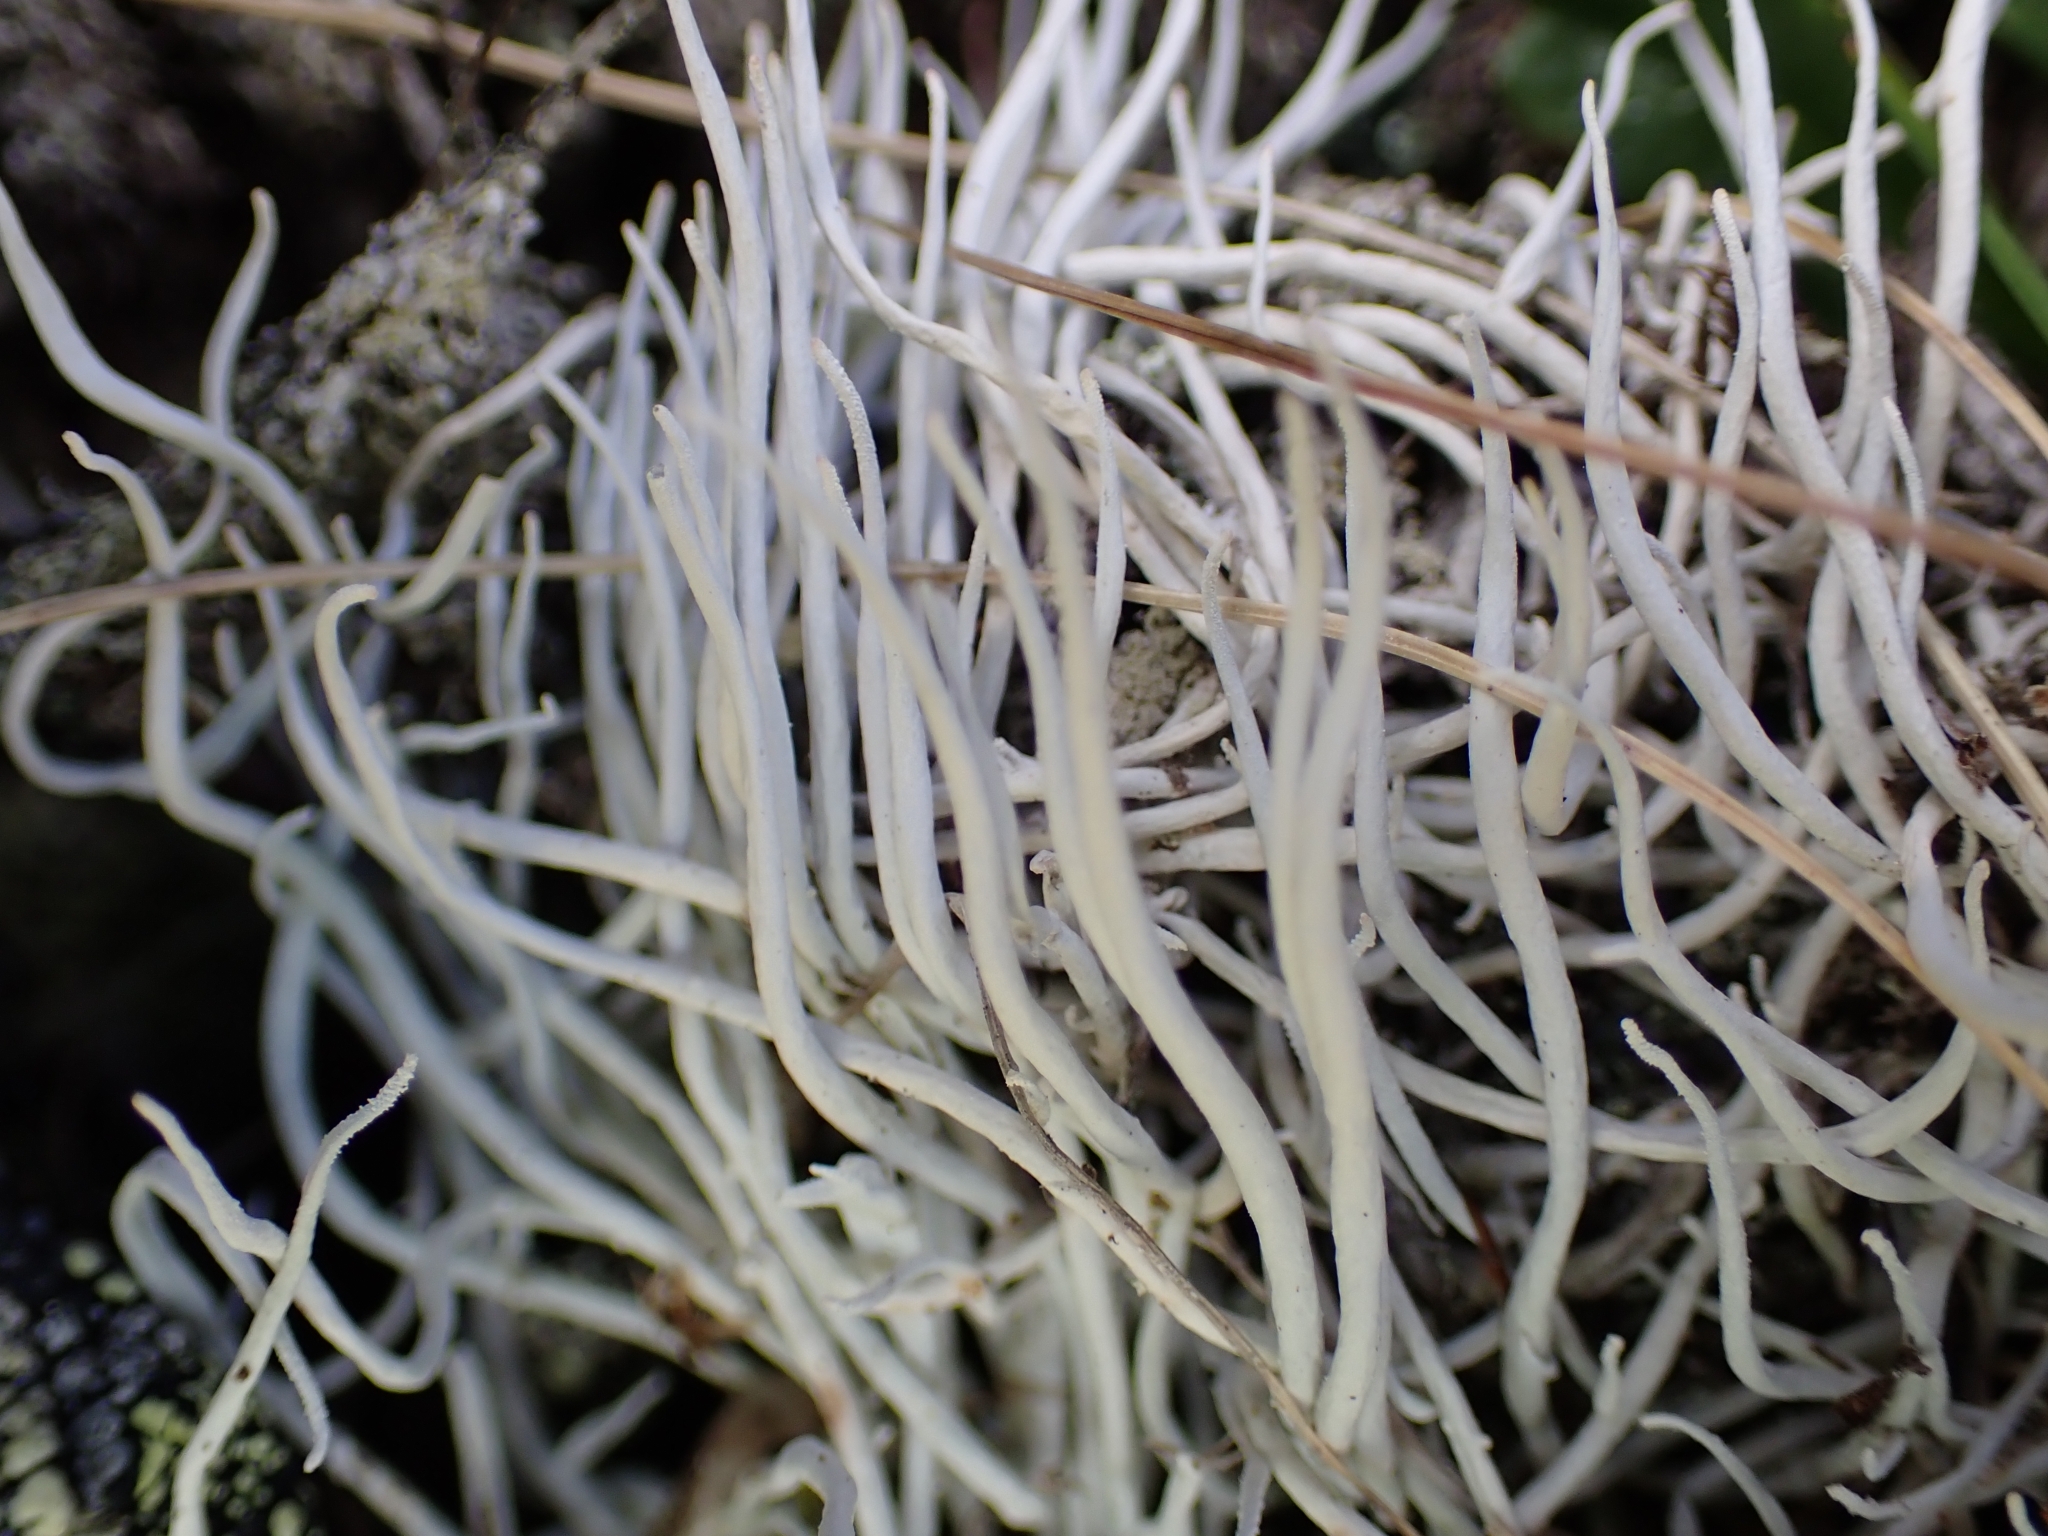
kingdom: Fungi
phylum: Ascomycota
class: Lecanoromycetes
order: Pertusariales
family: Icmadophilaceae
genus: Thamnolia
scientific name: Thamnolia vermicularis
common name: Whiteworm lichen
